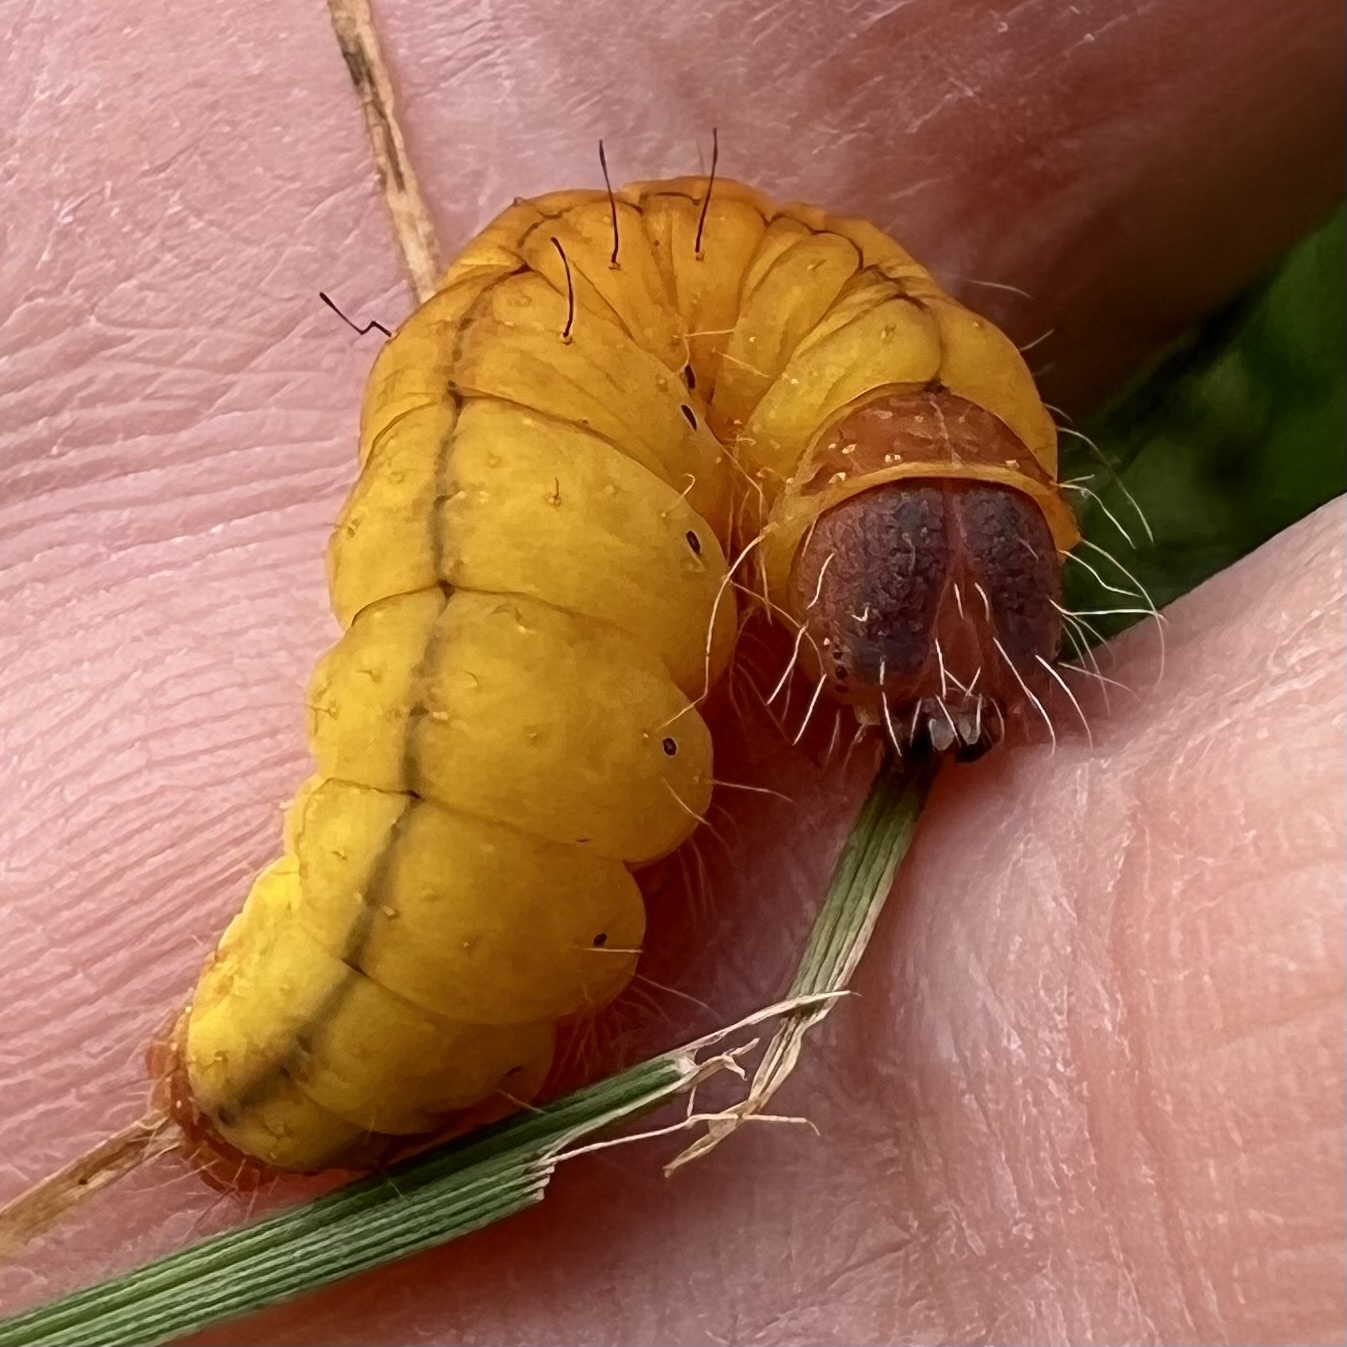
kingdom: Animalia
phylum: Arthropoda
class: Insecta
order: Lepidoptera
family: Noctuidae
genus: Acronicta
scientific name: Acronicta afflicta
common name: Afflicted dagger moth
